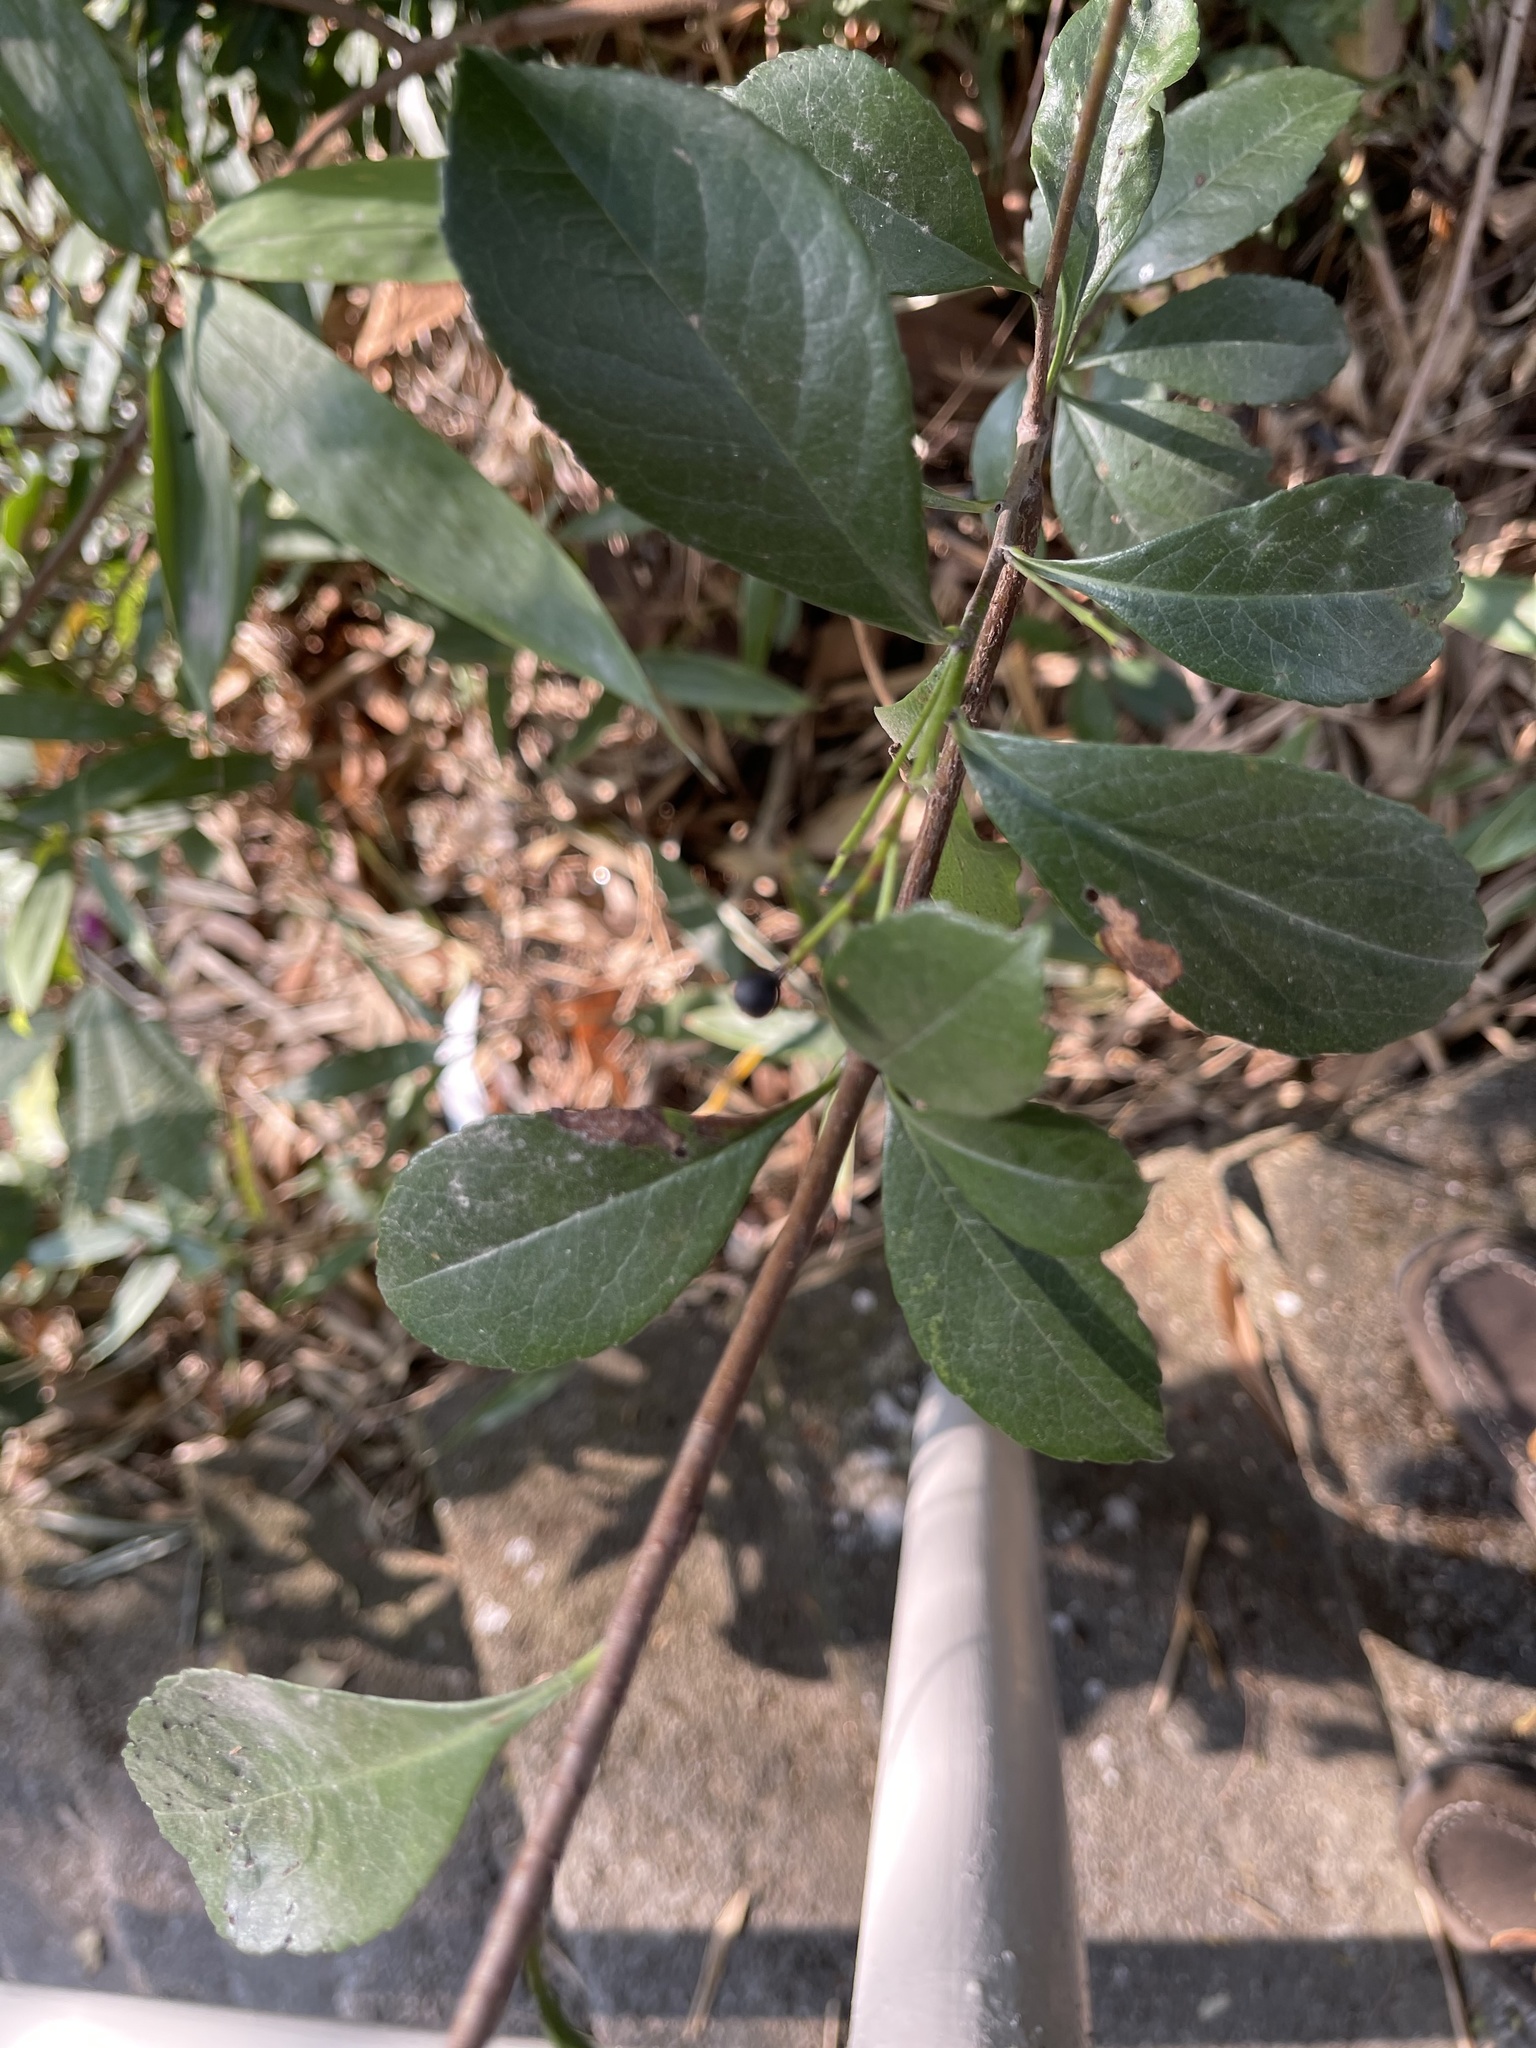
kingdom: Plantae
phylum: Tracheophyta
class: Magnoliopsida
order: Rosales
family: Rosaceae
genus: Rhaphiolepis
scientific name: Rhaphiolepis indica
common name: India-hawthorn
